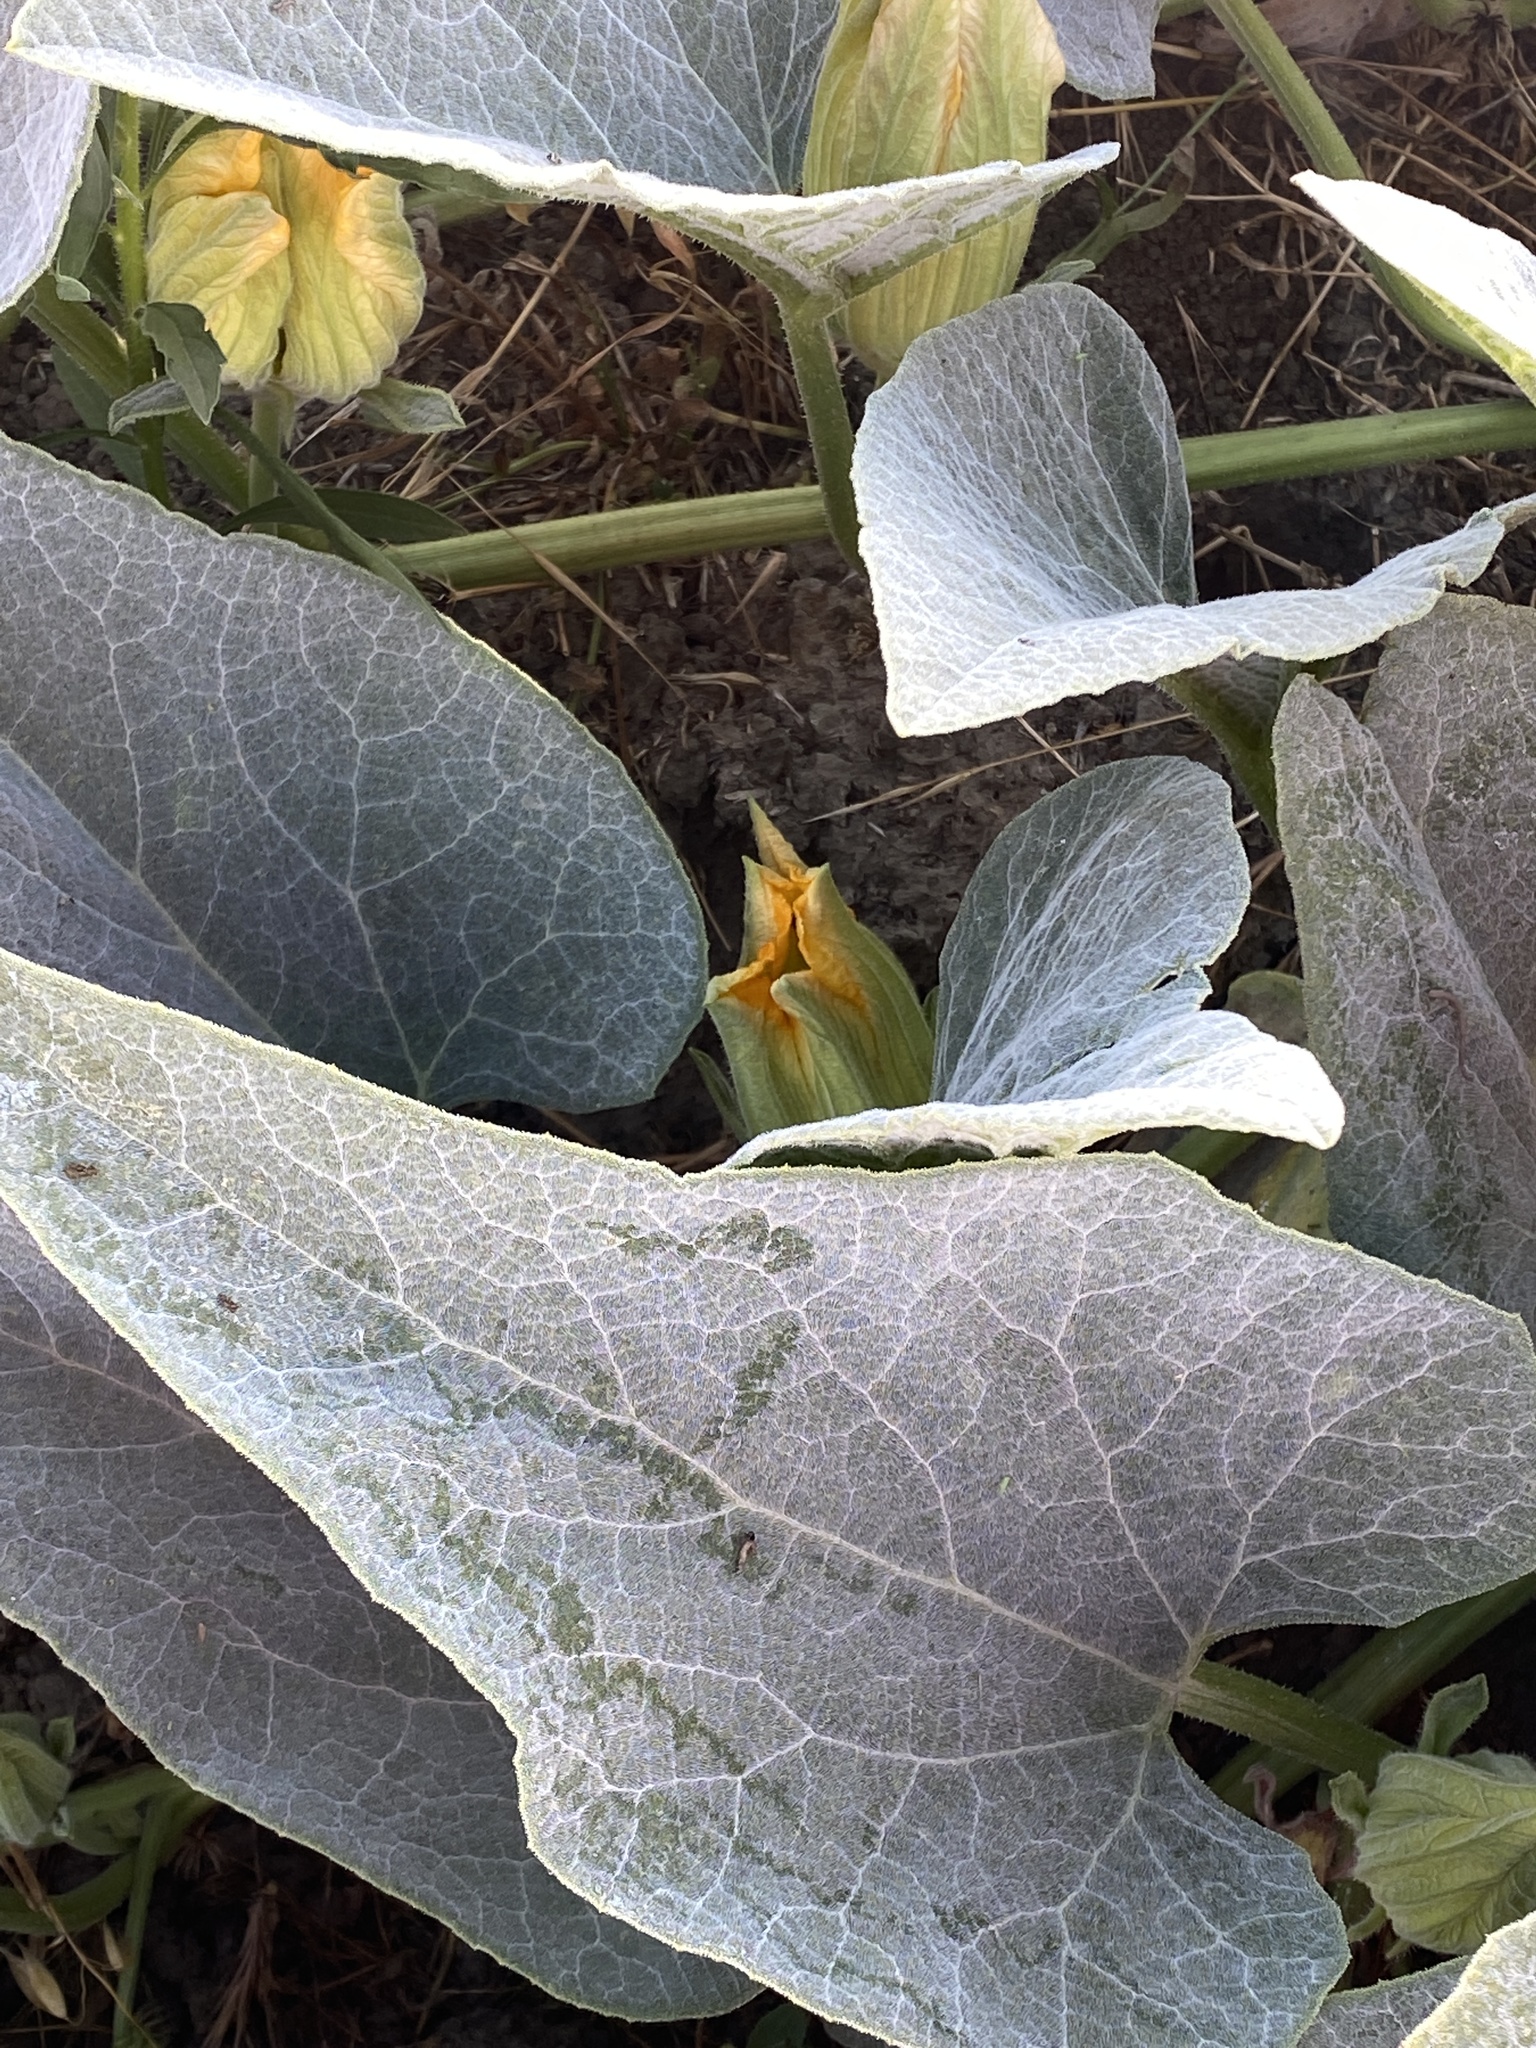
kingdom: Plantae
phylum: Tracheophyta
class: Magnoliopsida
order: Cucurbitales
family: Cucurbitaceae
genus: Cucurbita
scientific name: Cucurbita foetidissima
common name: Buffalo gourd
